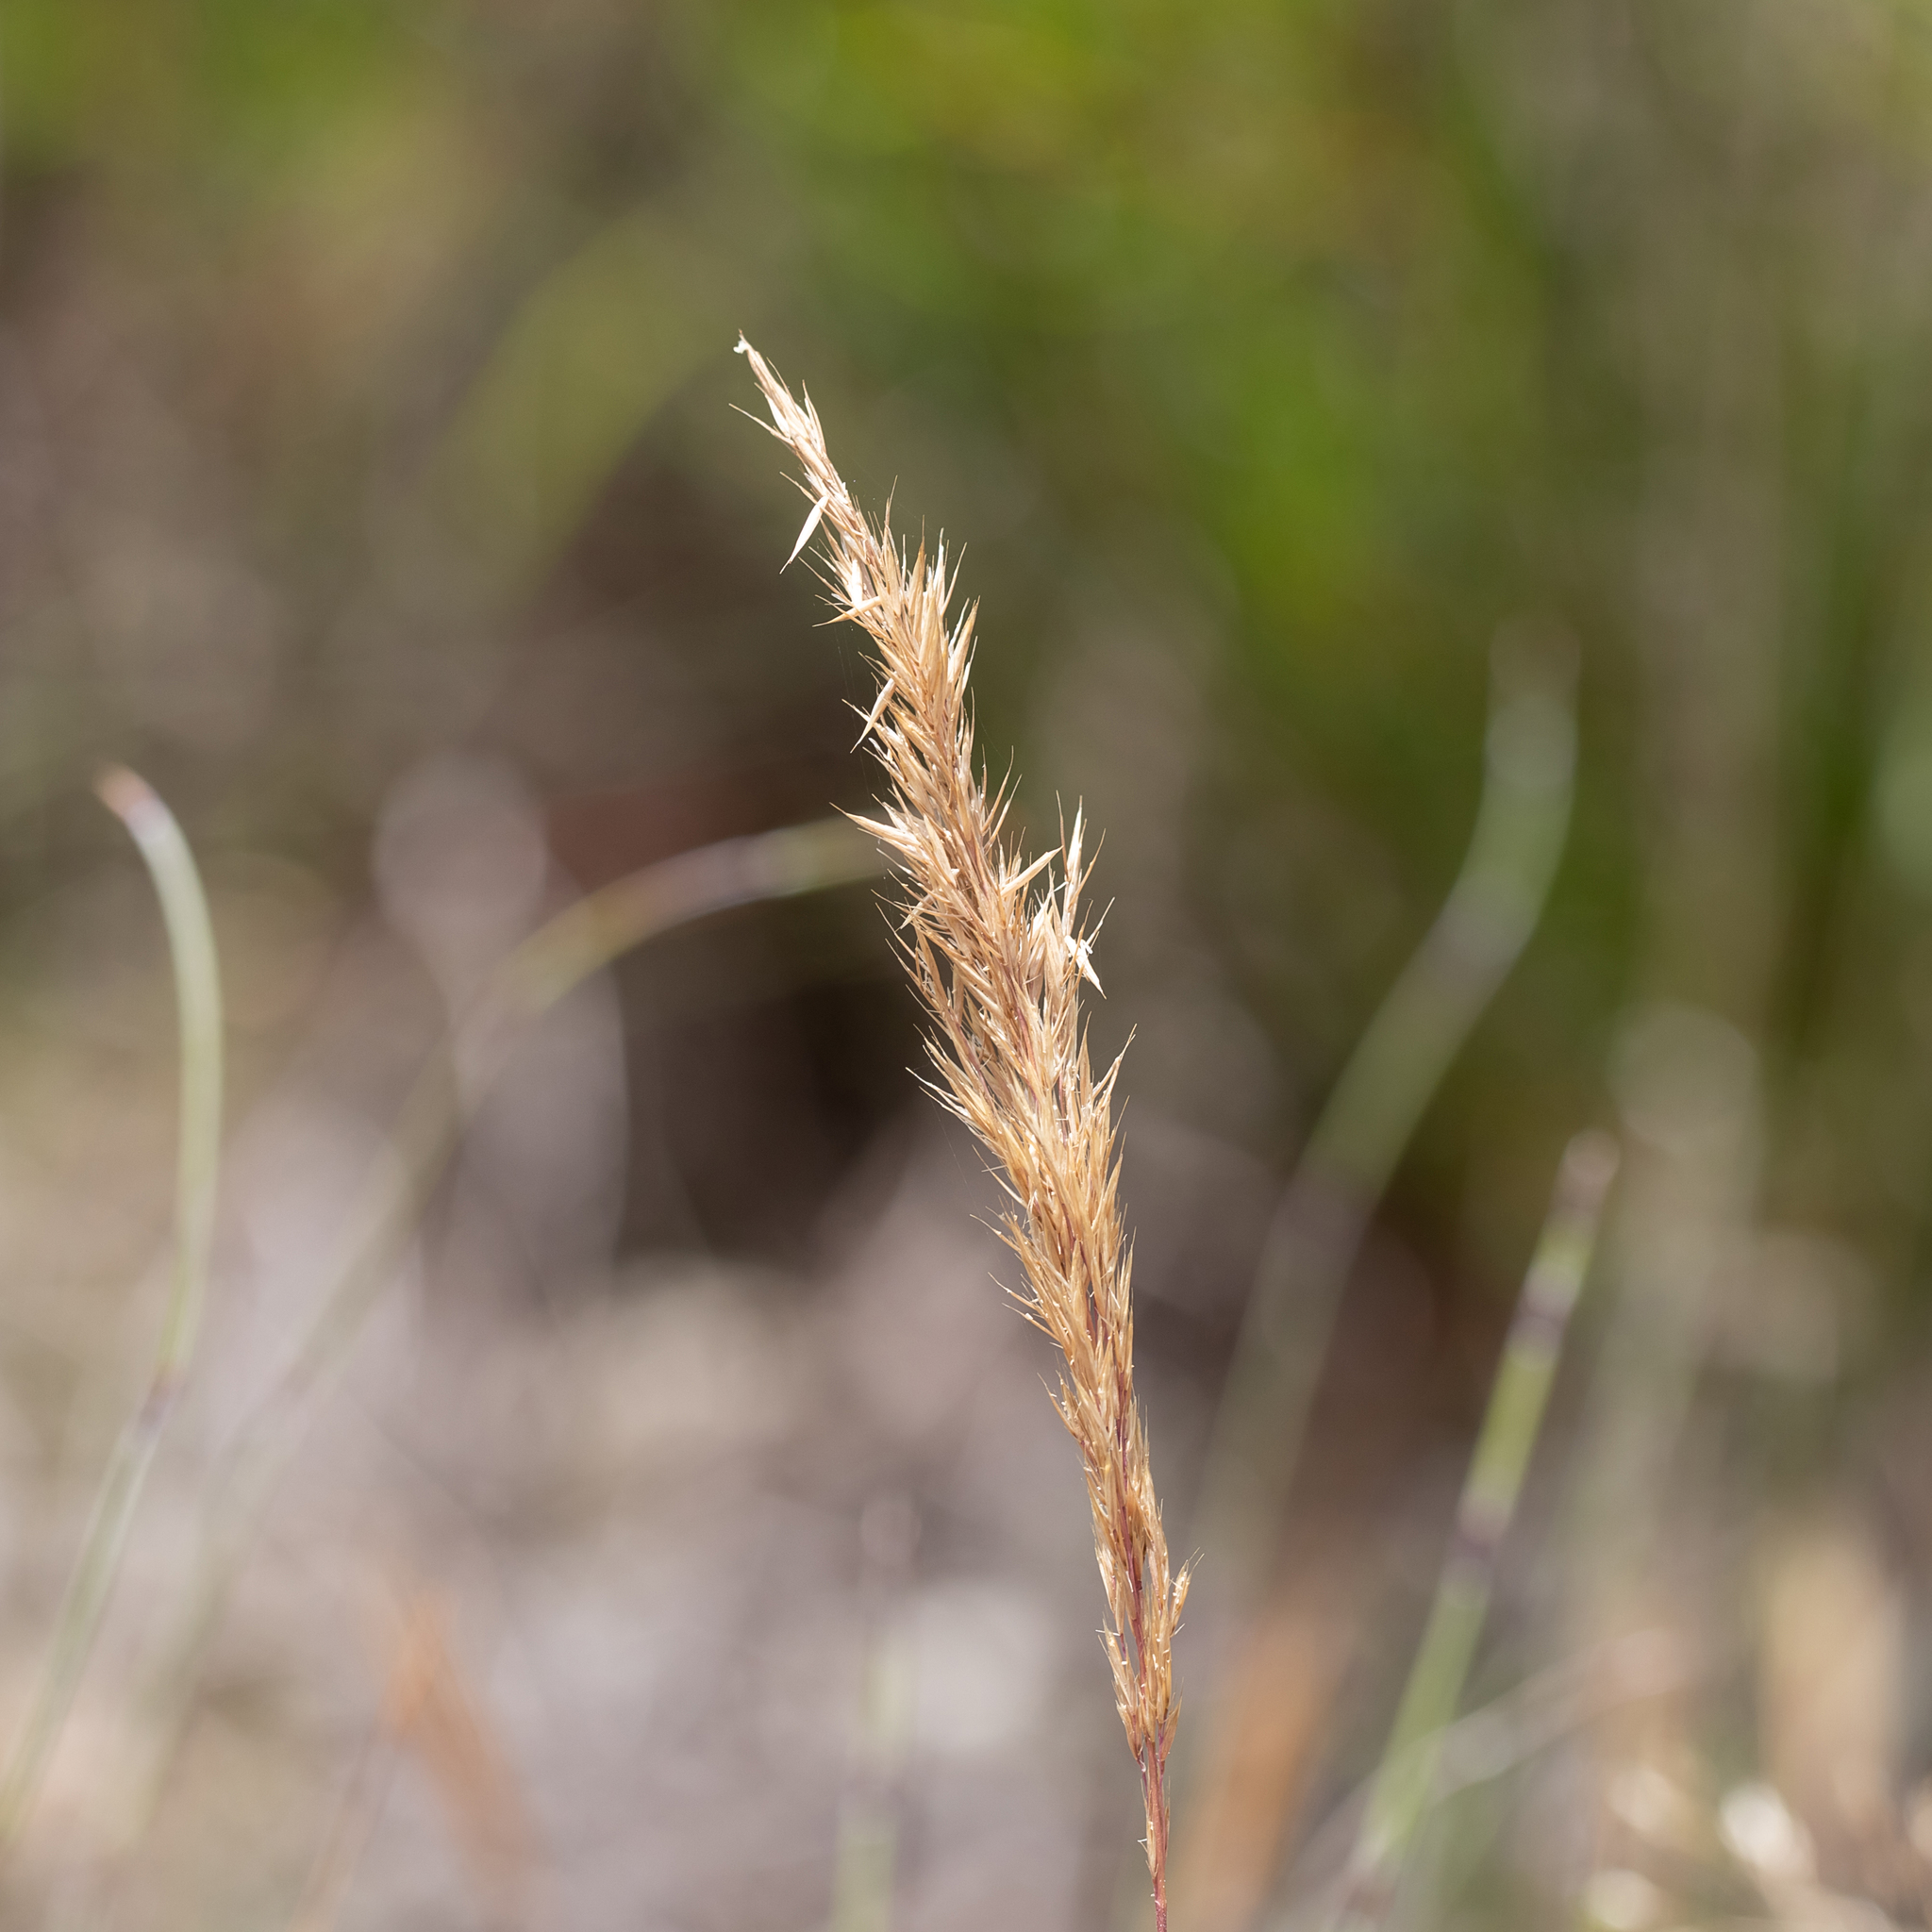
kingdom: Plantae
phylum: Tracheophyta
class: Liliopsida
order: Poales
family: Poaceae
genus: Avellinia
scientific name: Avellinia festucoides
